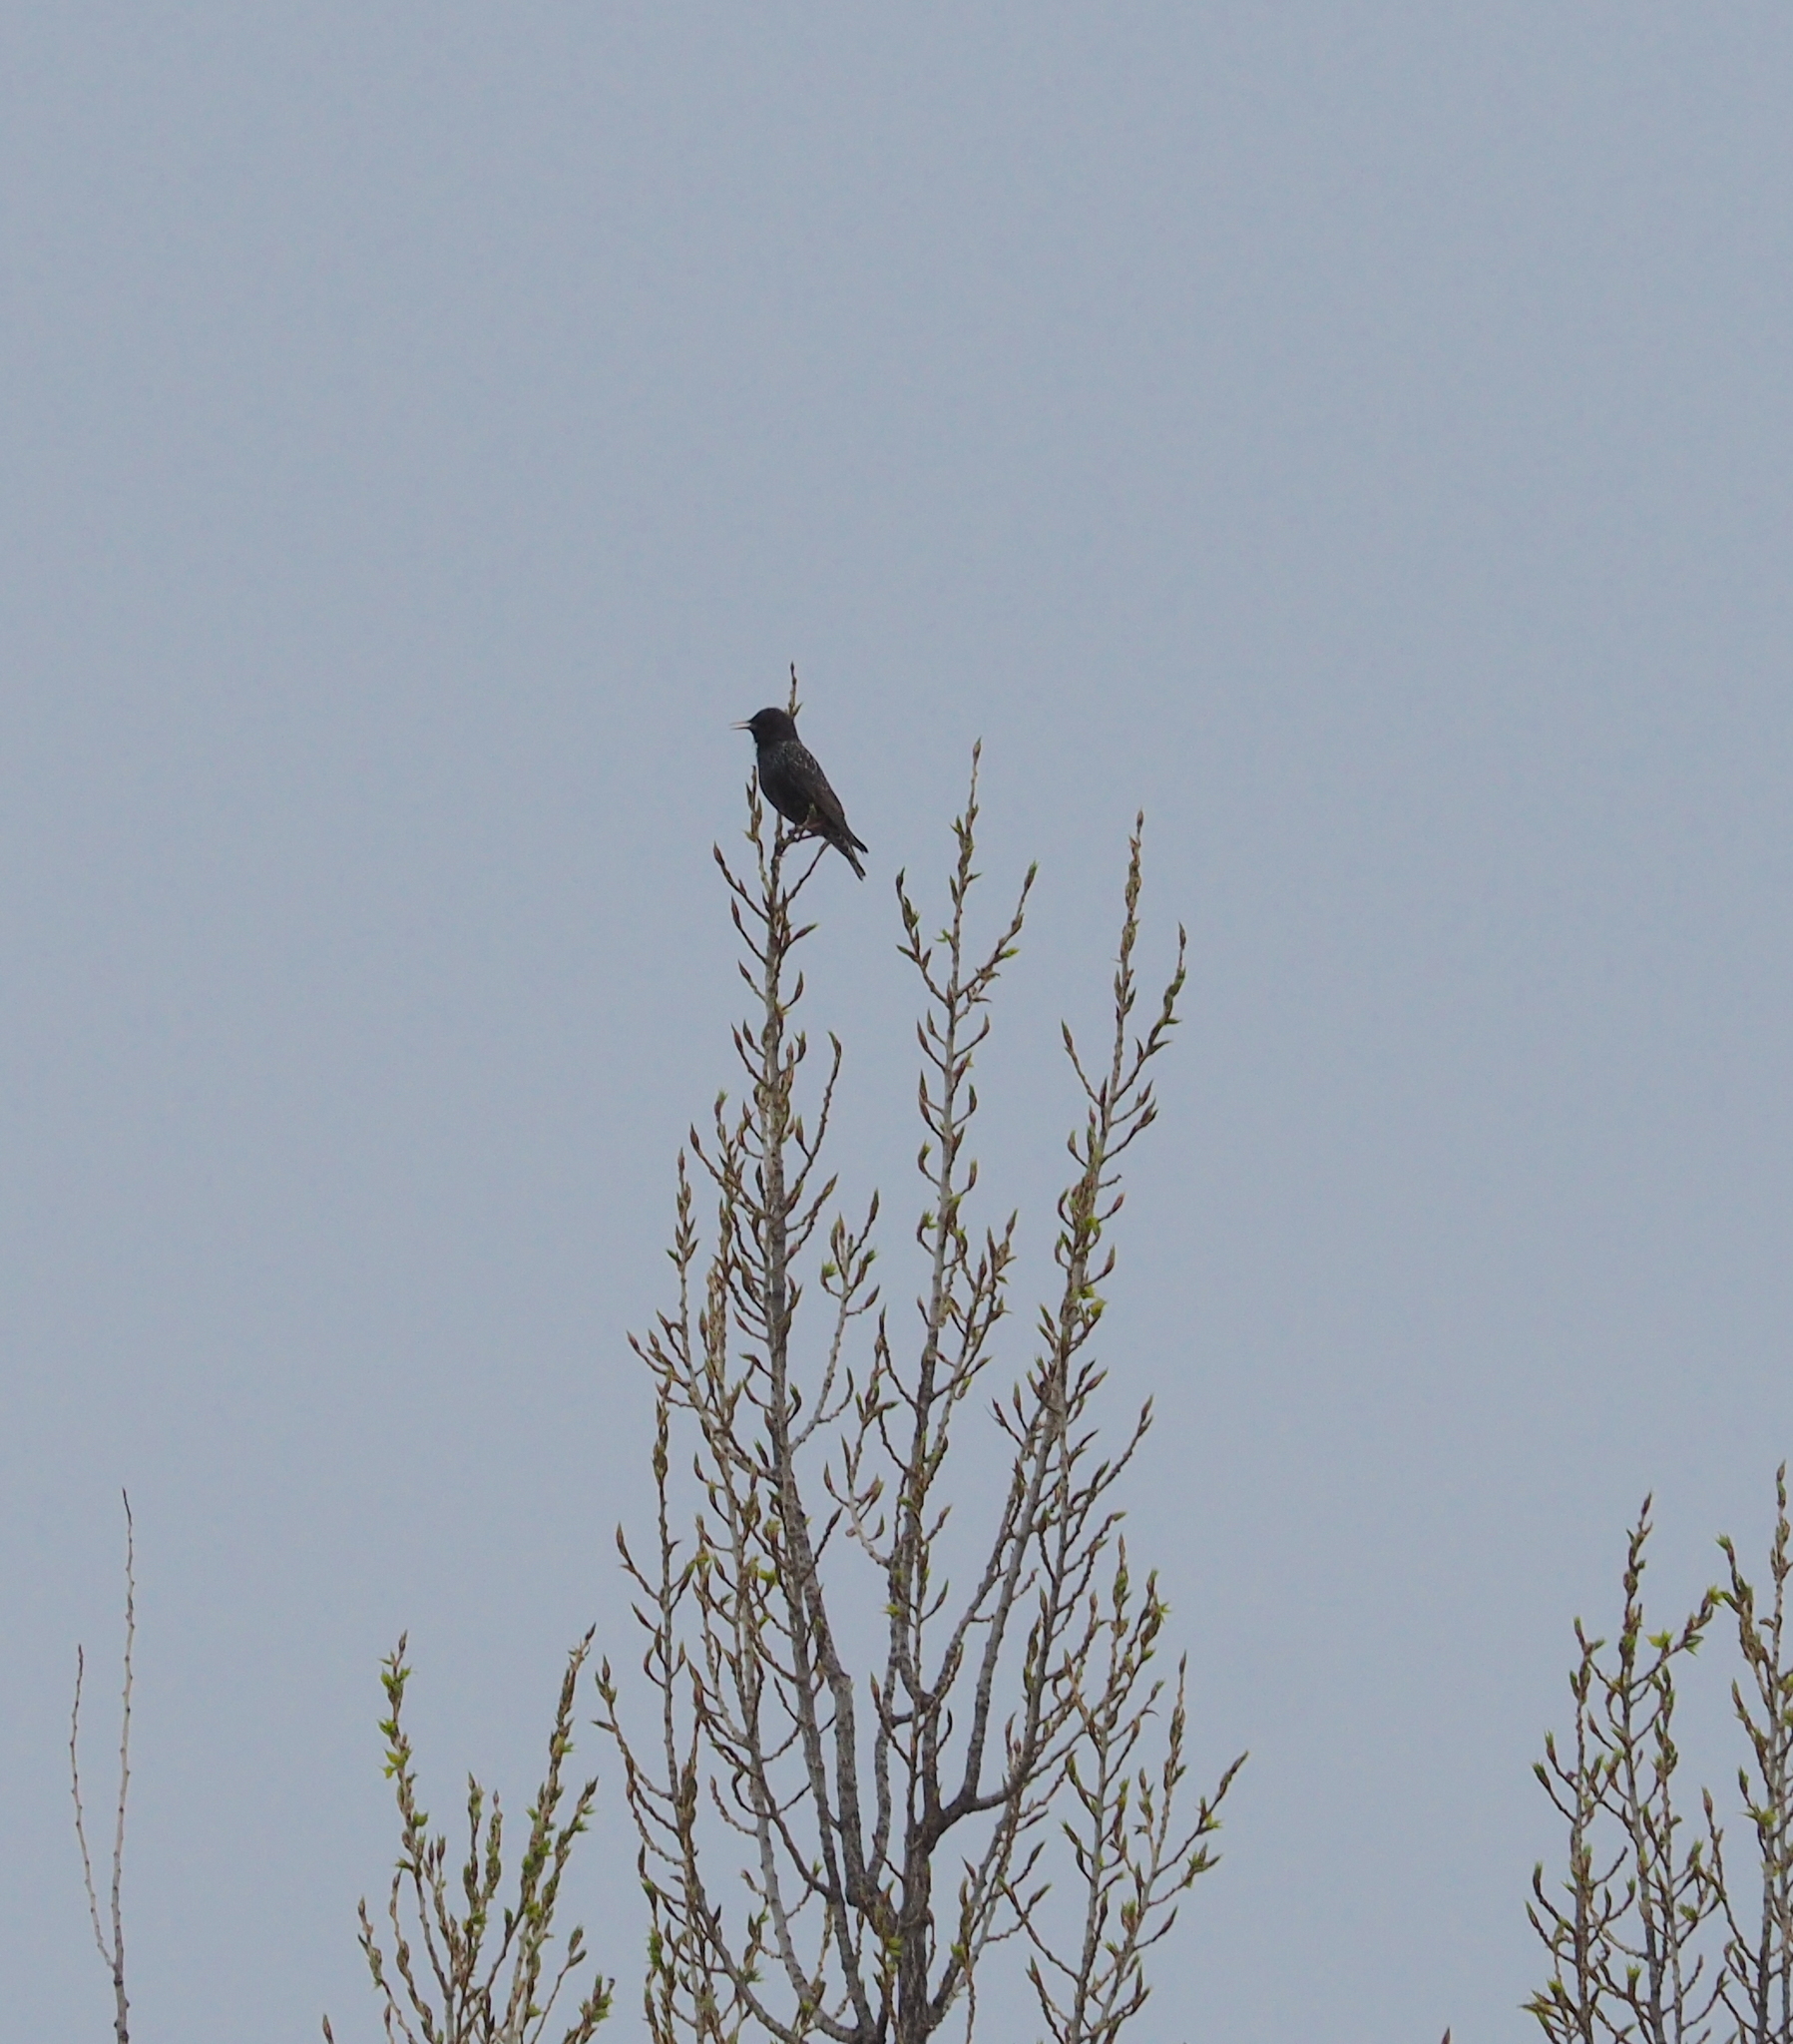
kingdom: Animalia
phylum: Chordata
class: Aves
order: Passeriformes
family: Sturnidae
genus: Sturnus
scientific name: Sturnus vulgaris
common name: Common starling
